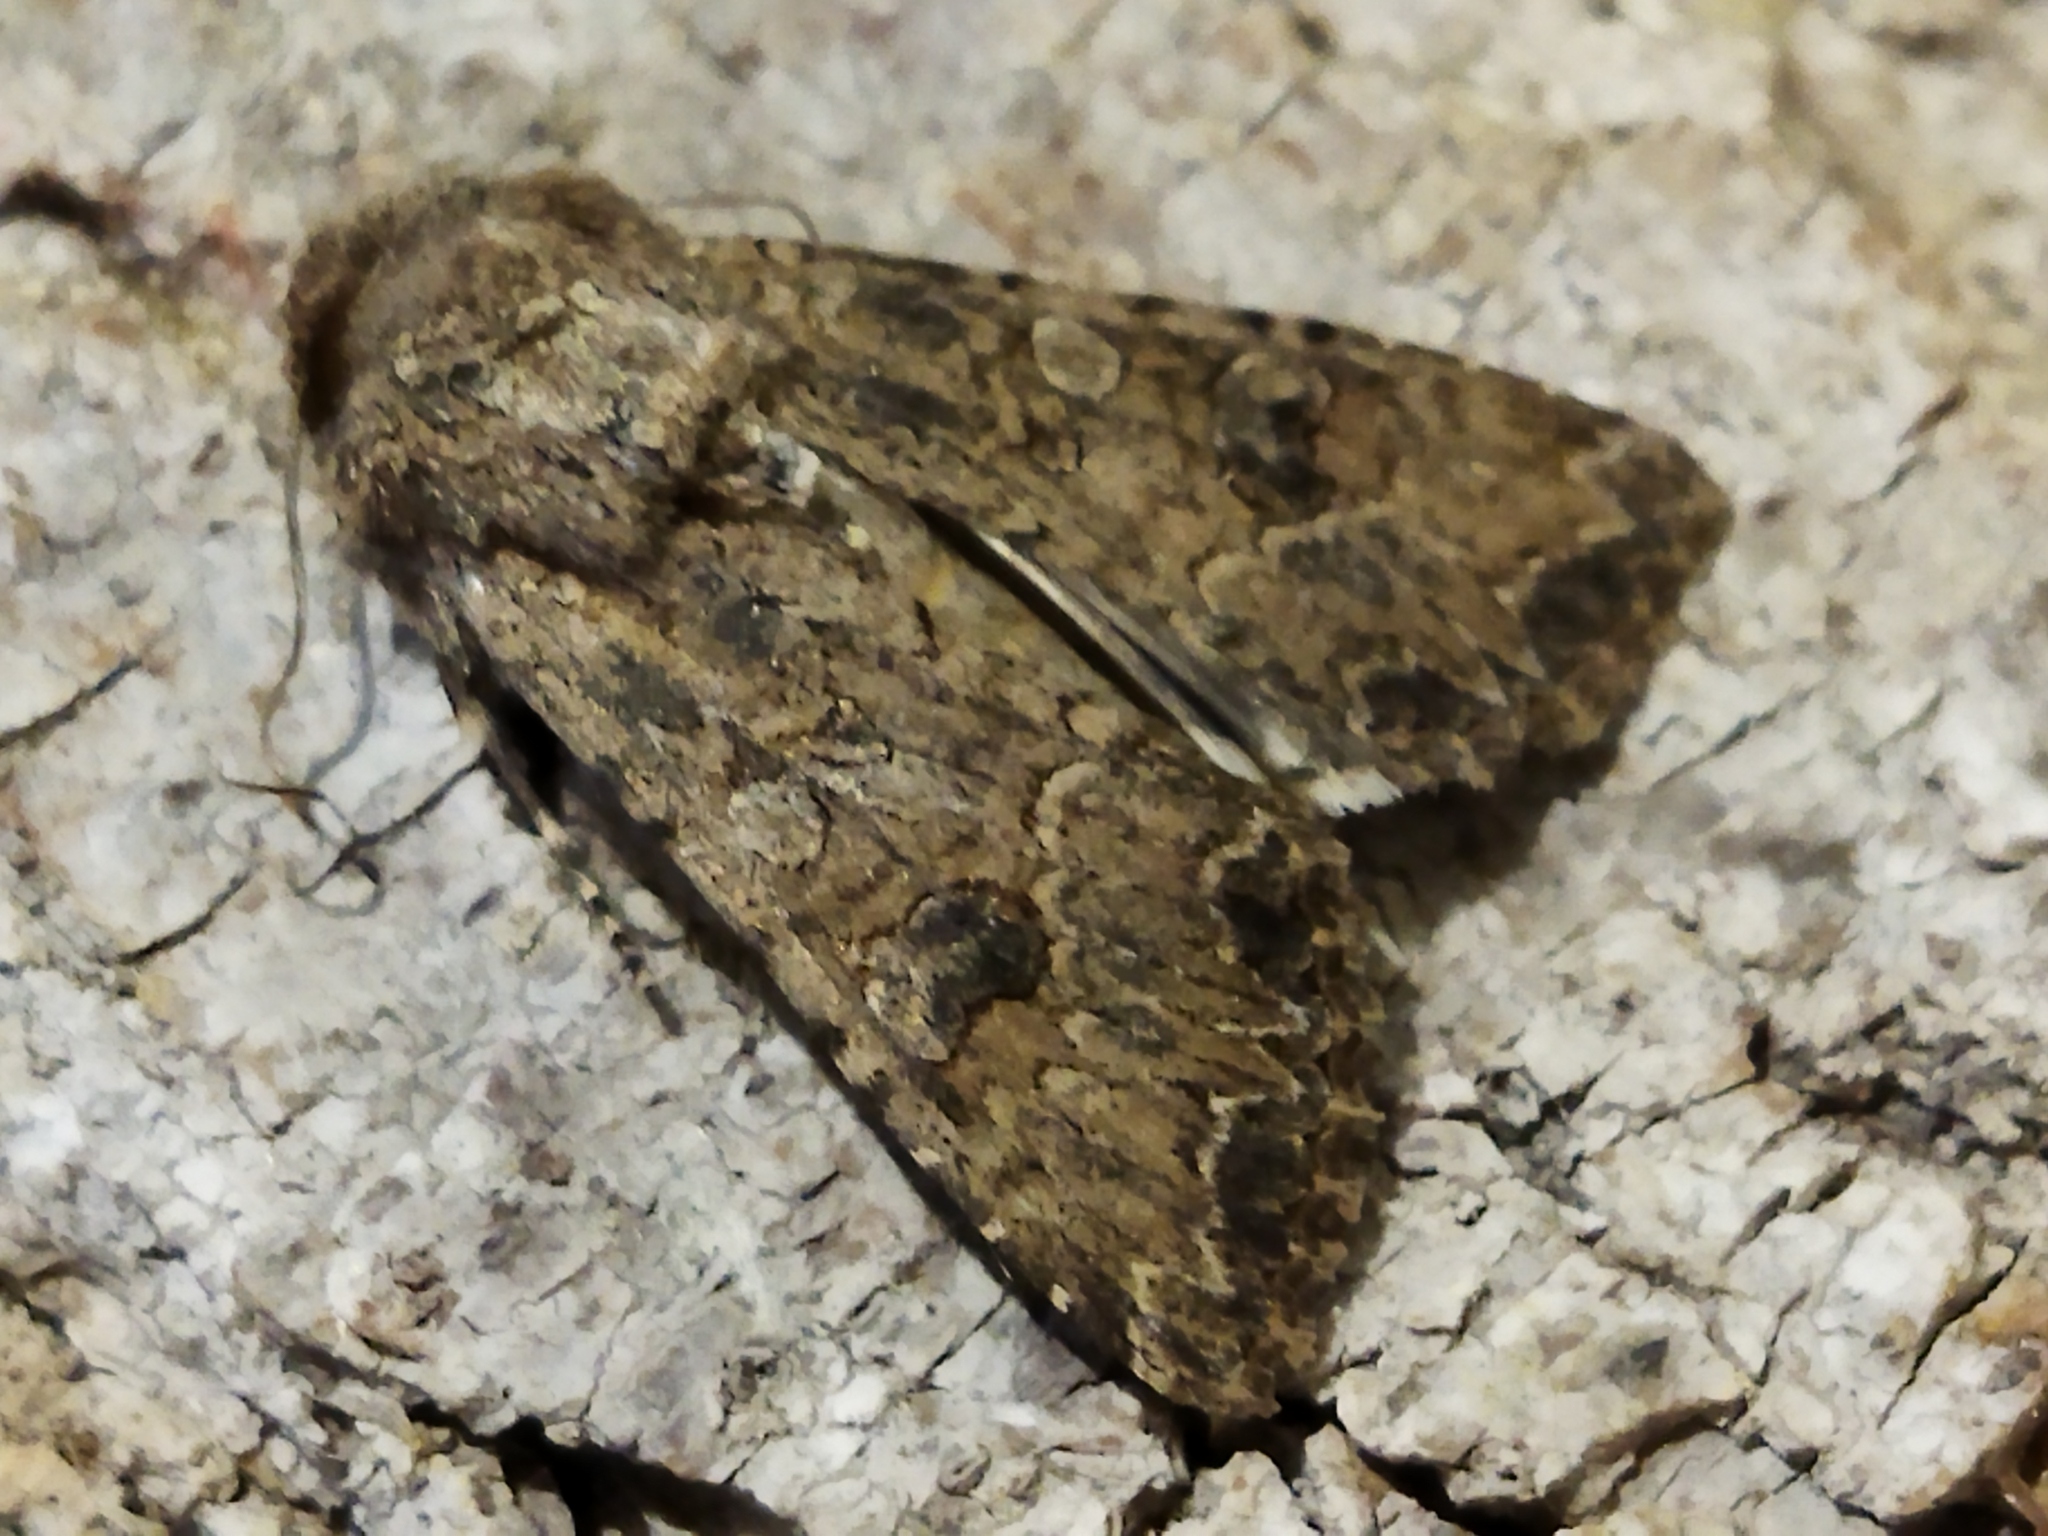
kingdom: Animalia
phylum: Arthropoda
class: Insecta
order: Lepidoptera
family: Noctuidae
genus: Anarta
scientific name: Anarta trifolii
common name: Clover cutworm moth
